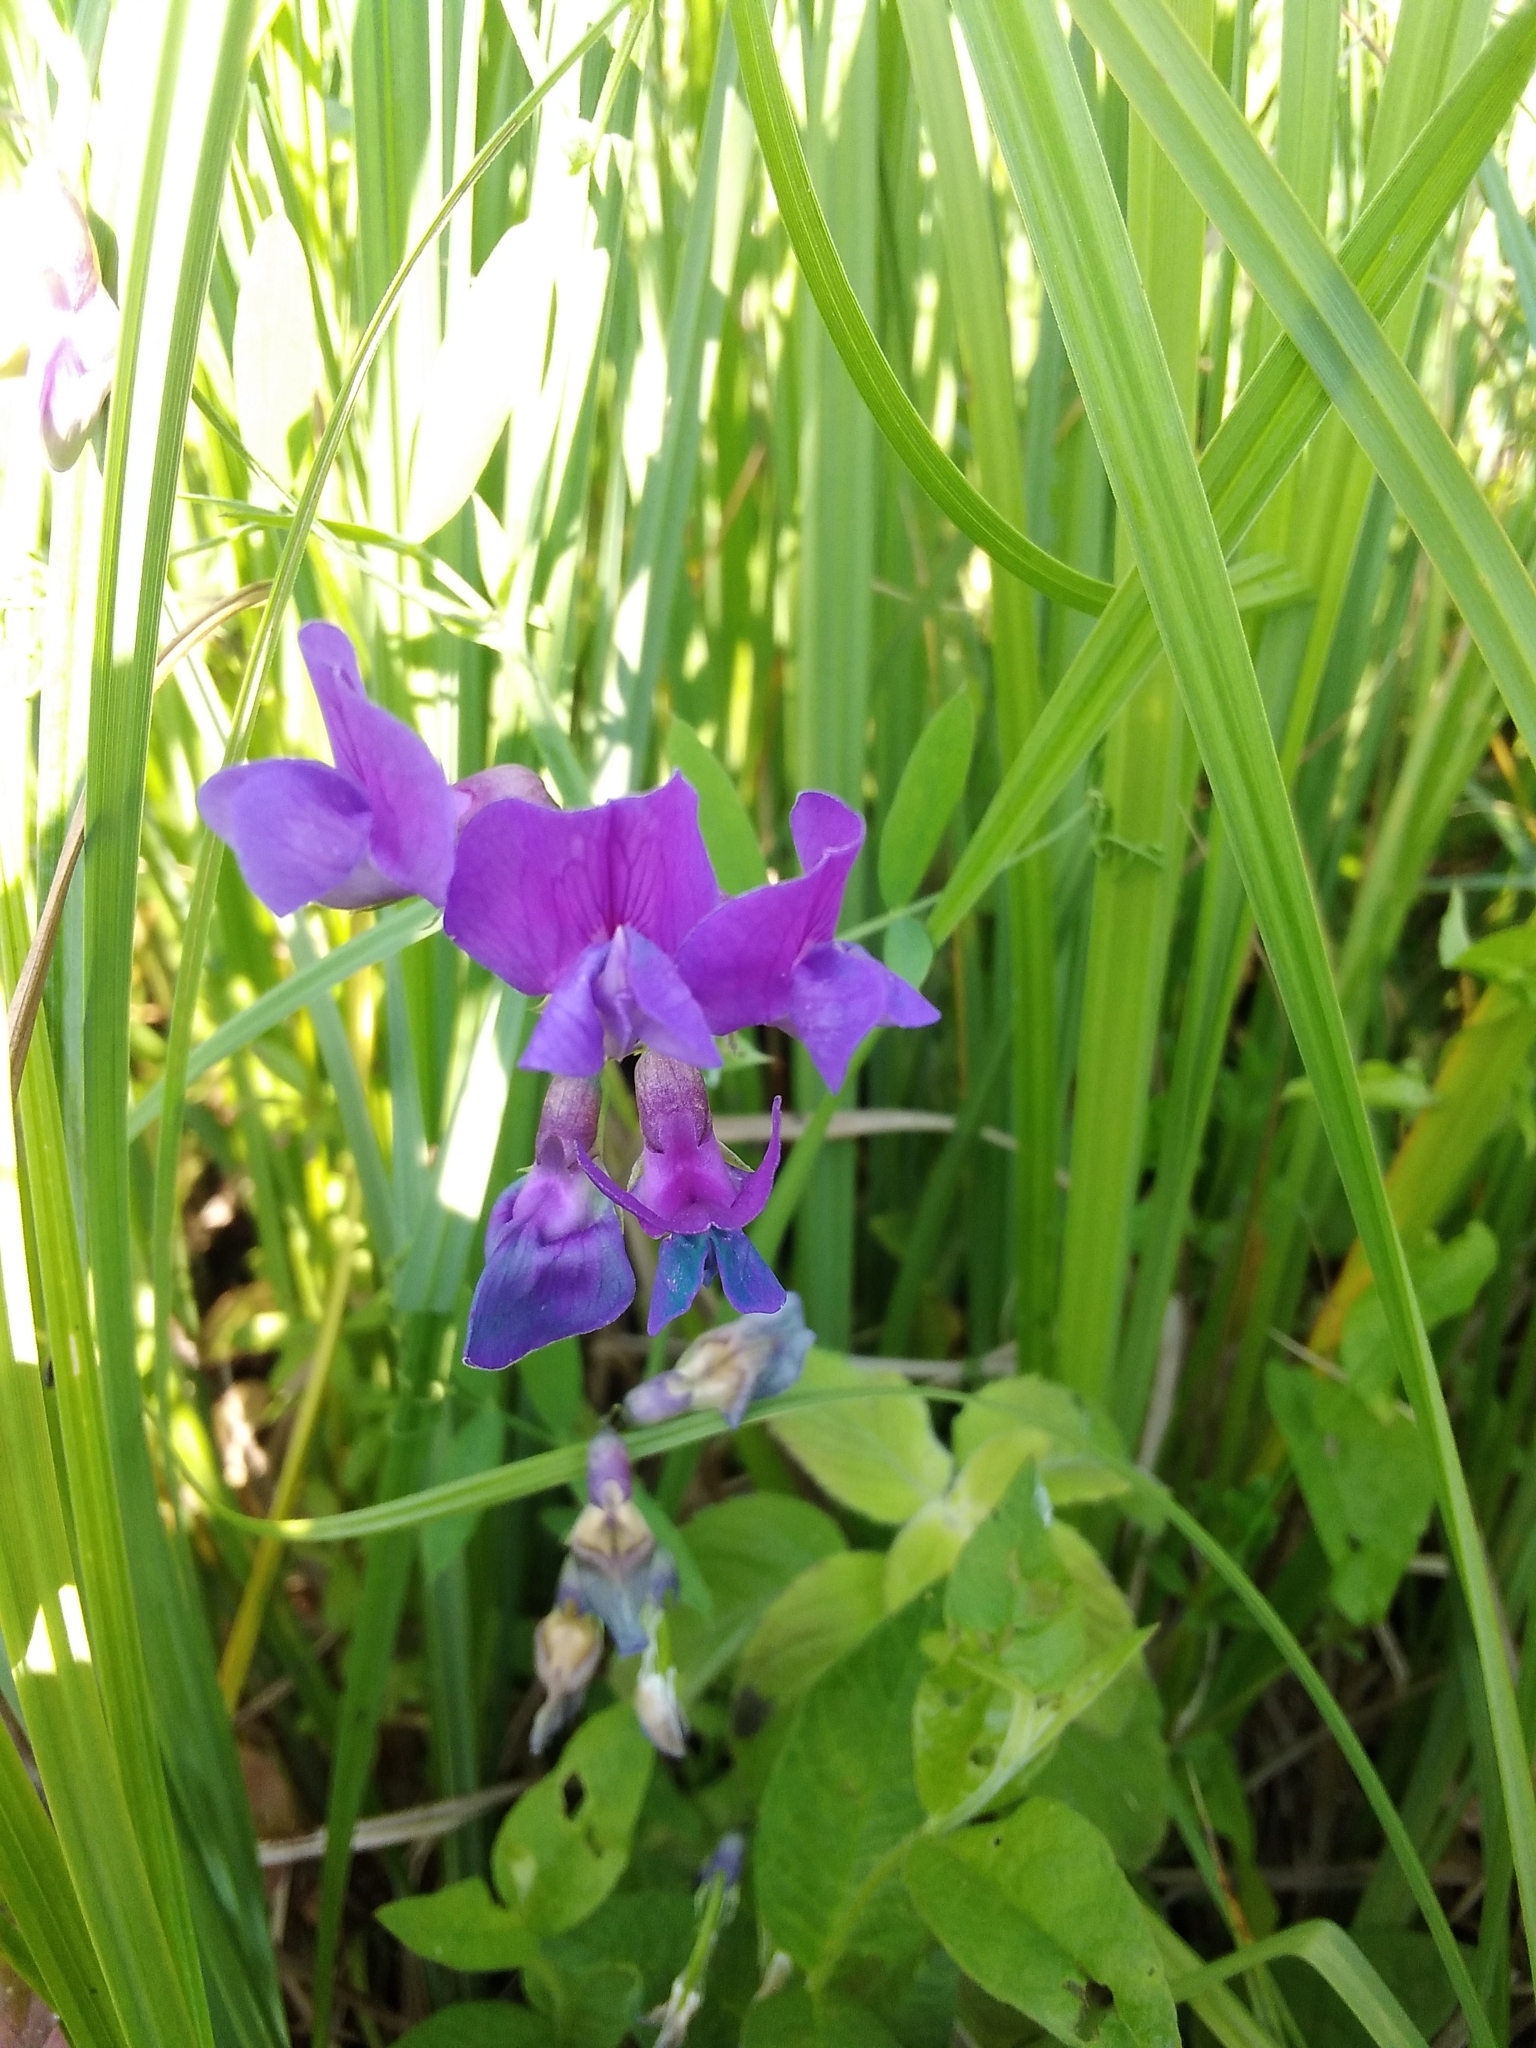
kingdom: Plantae
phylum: Tracheophyta
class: Magnoliopsida
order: Fabales
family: Fabaceae
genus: Lathyrus
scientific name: Lathyrus palustris
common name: Marsh pea
